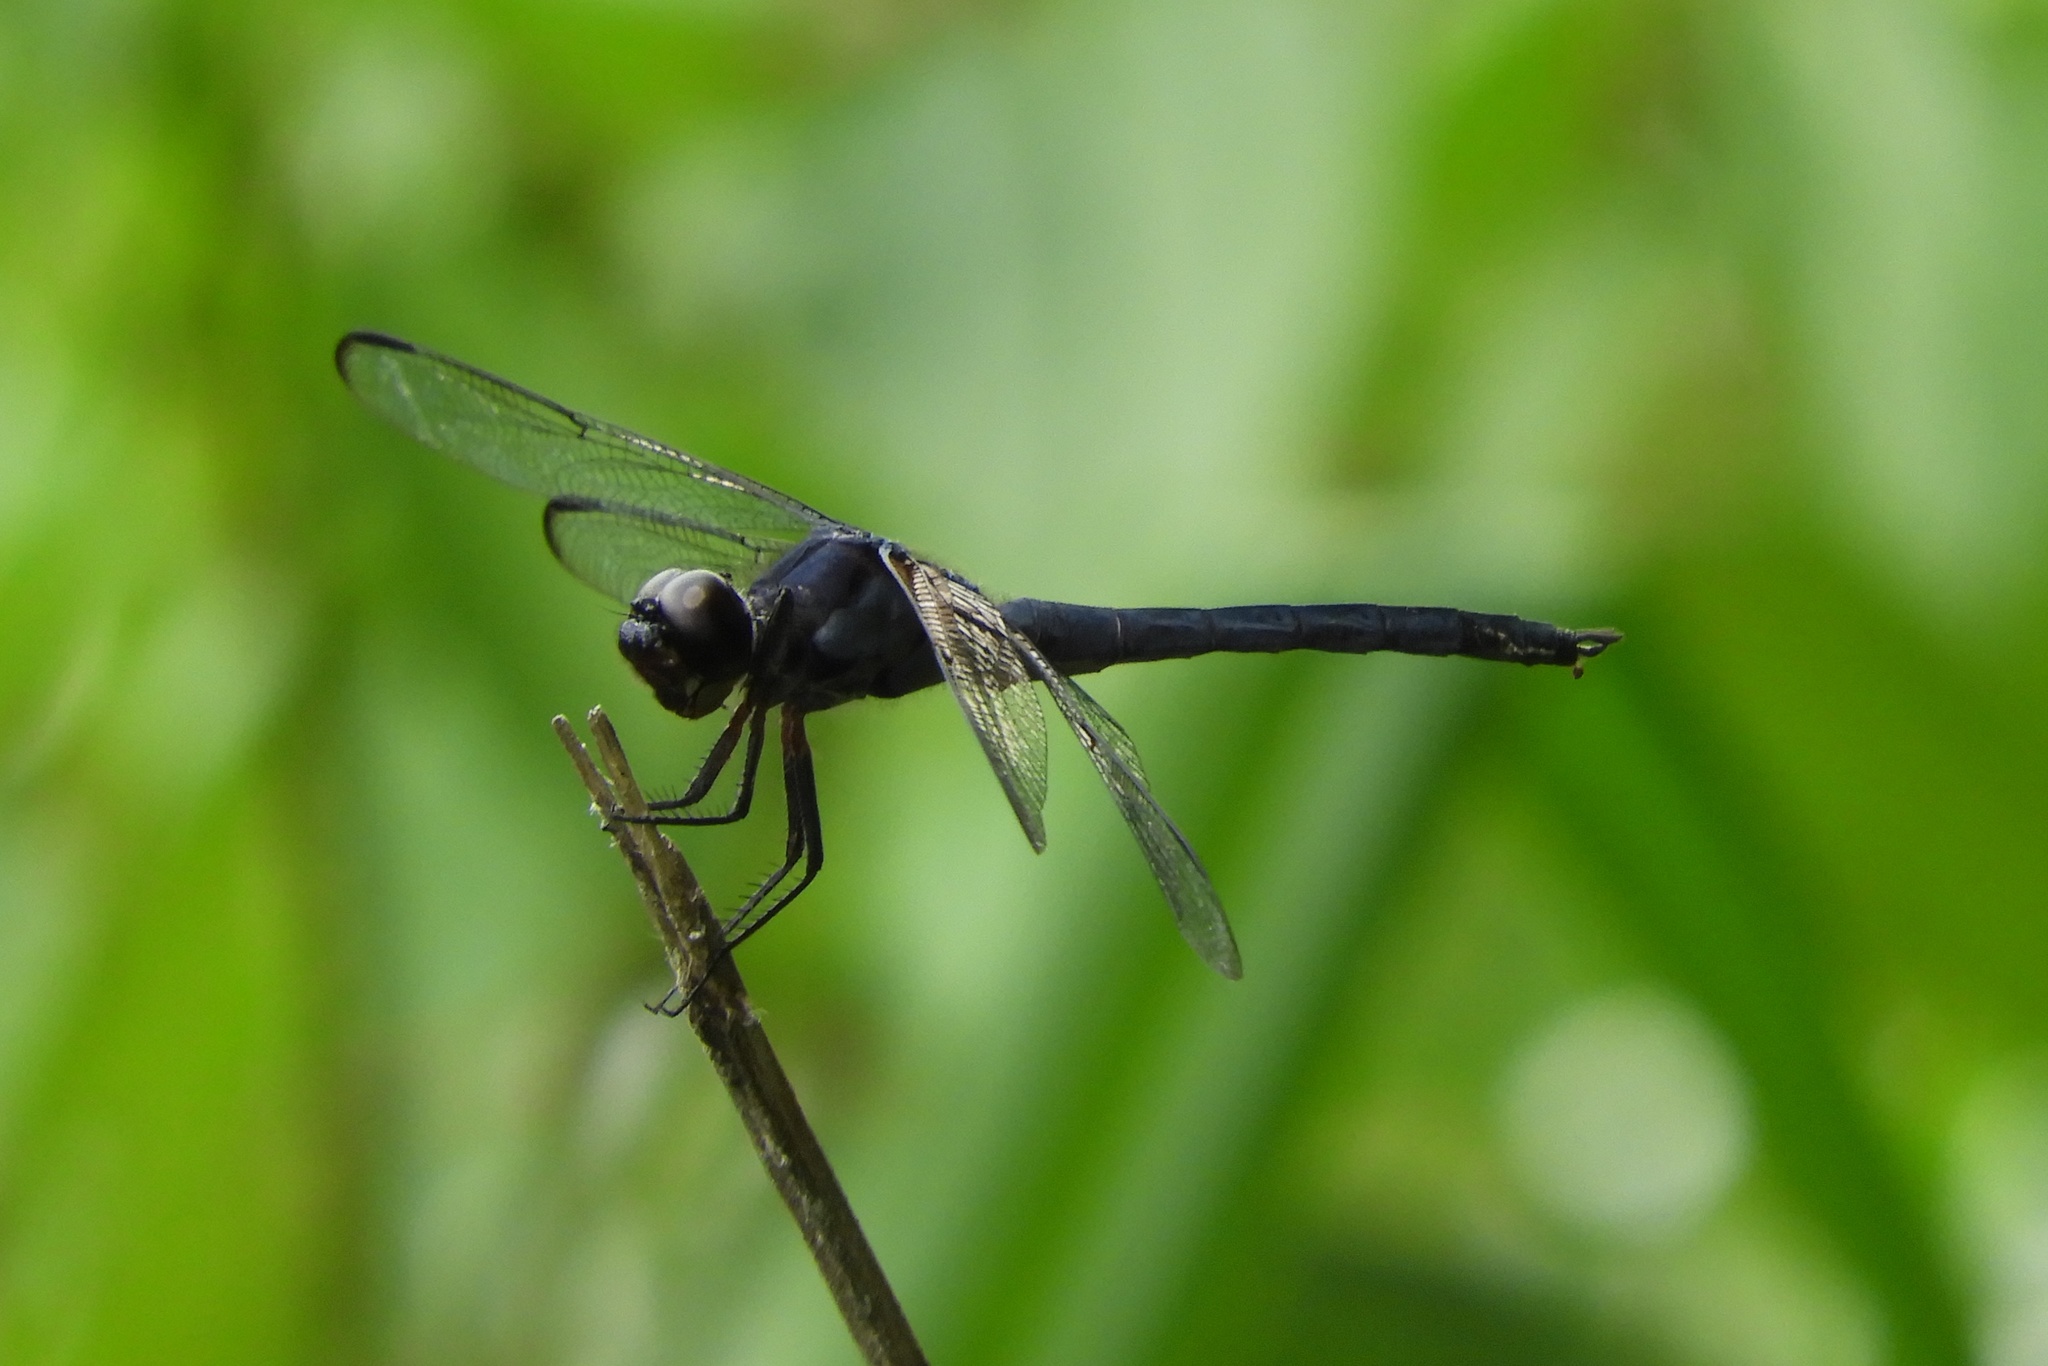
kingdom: Animalia
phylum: Arthropoda
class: Insecta
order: Odonata
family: Libellulidae
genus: Libellula
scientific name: Libellula incesta
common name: Slaty skimmer
